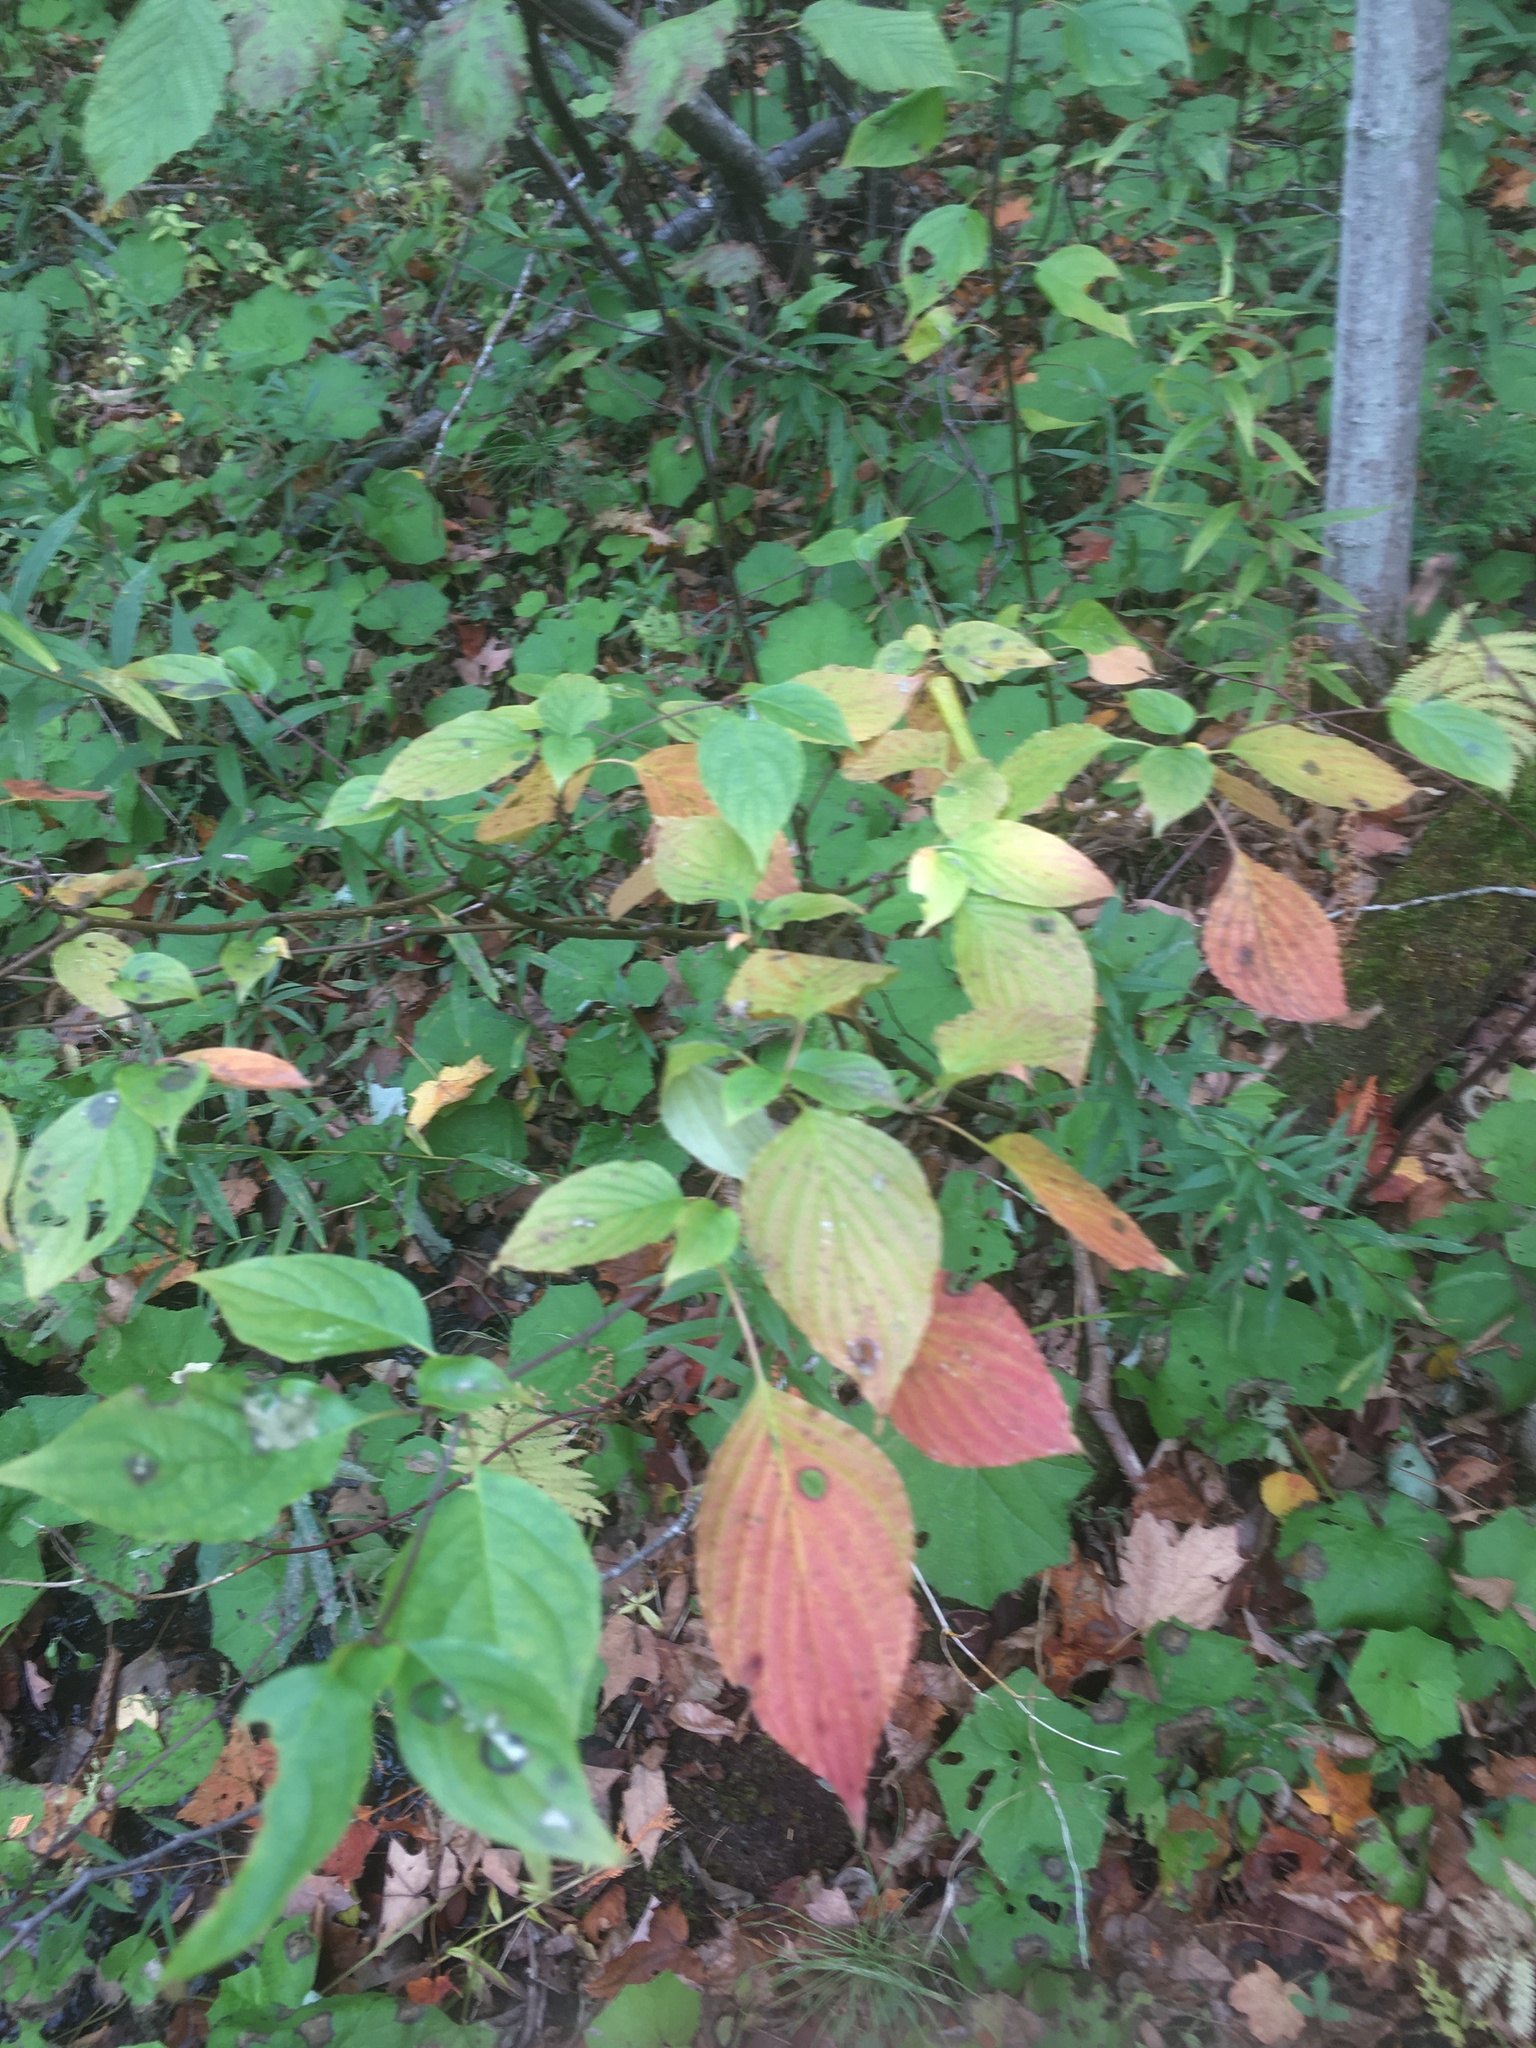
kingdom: Plantae
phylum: Tracheophyta
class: Magnoliopsida
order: Cornales
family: Cornaceae
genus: Cornus
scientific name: Cornus alternifolia
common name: Pagoda dogwood
